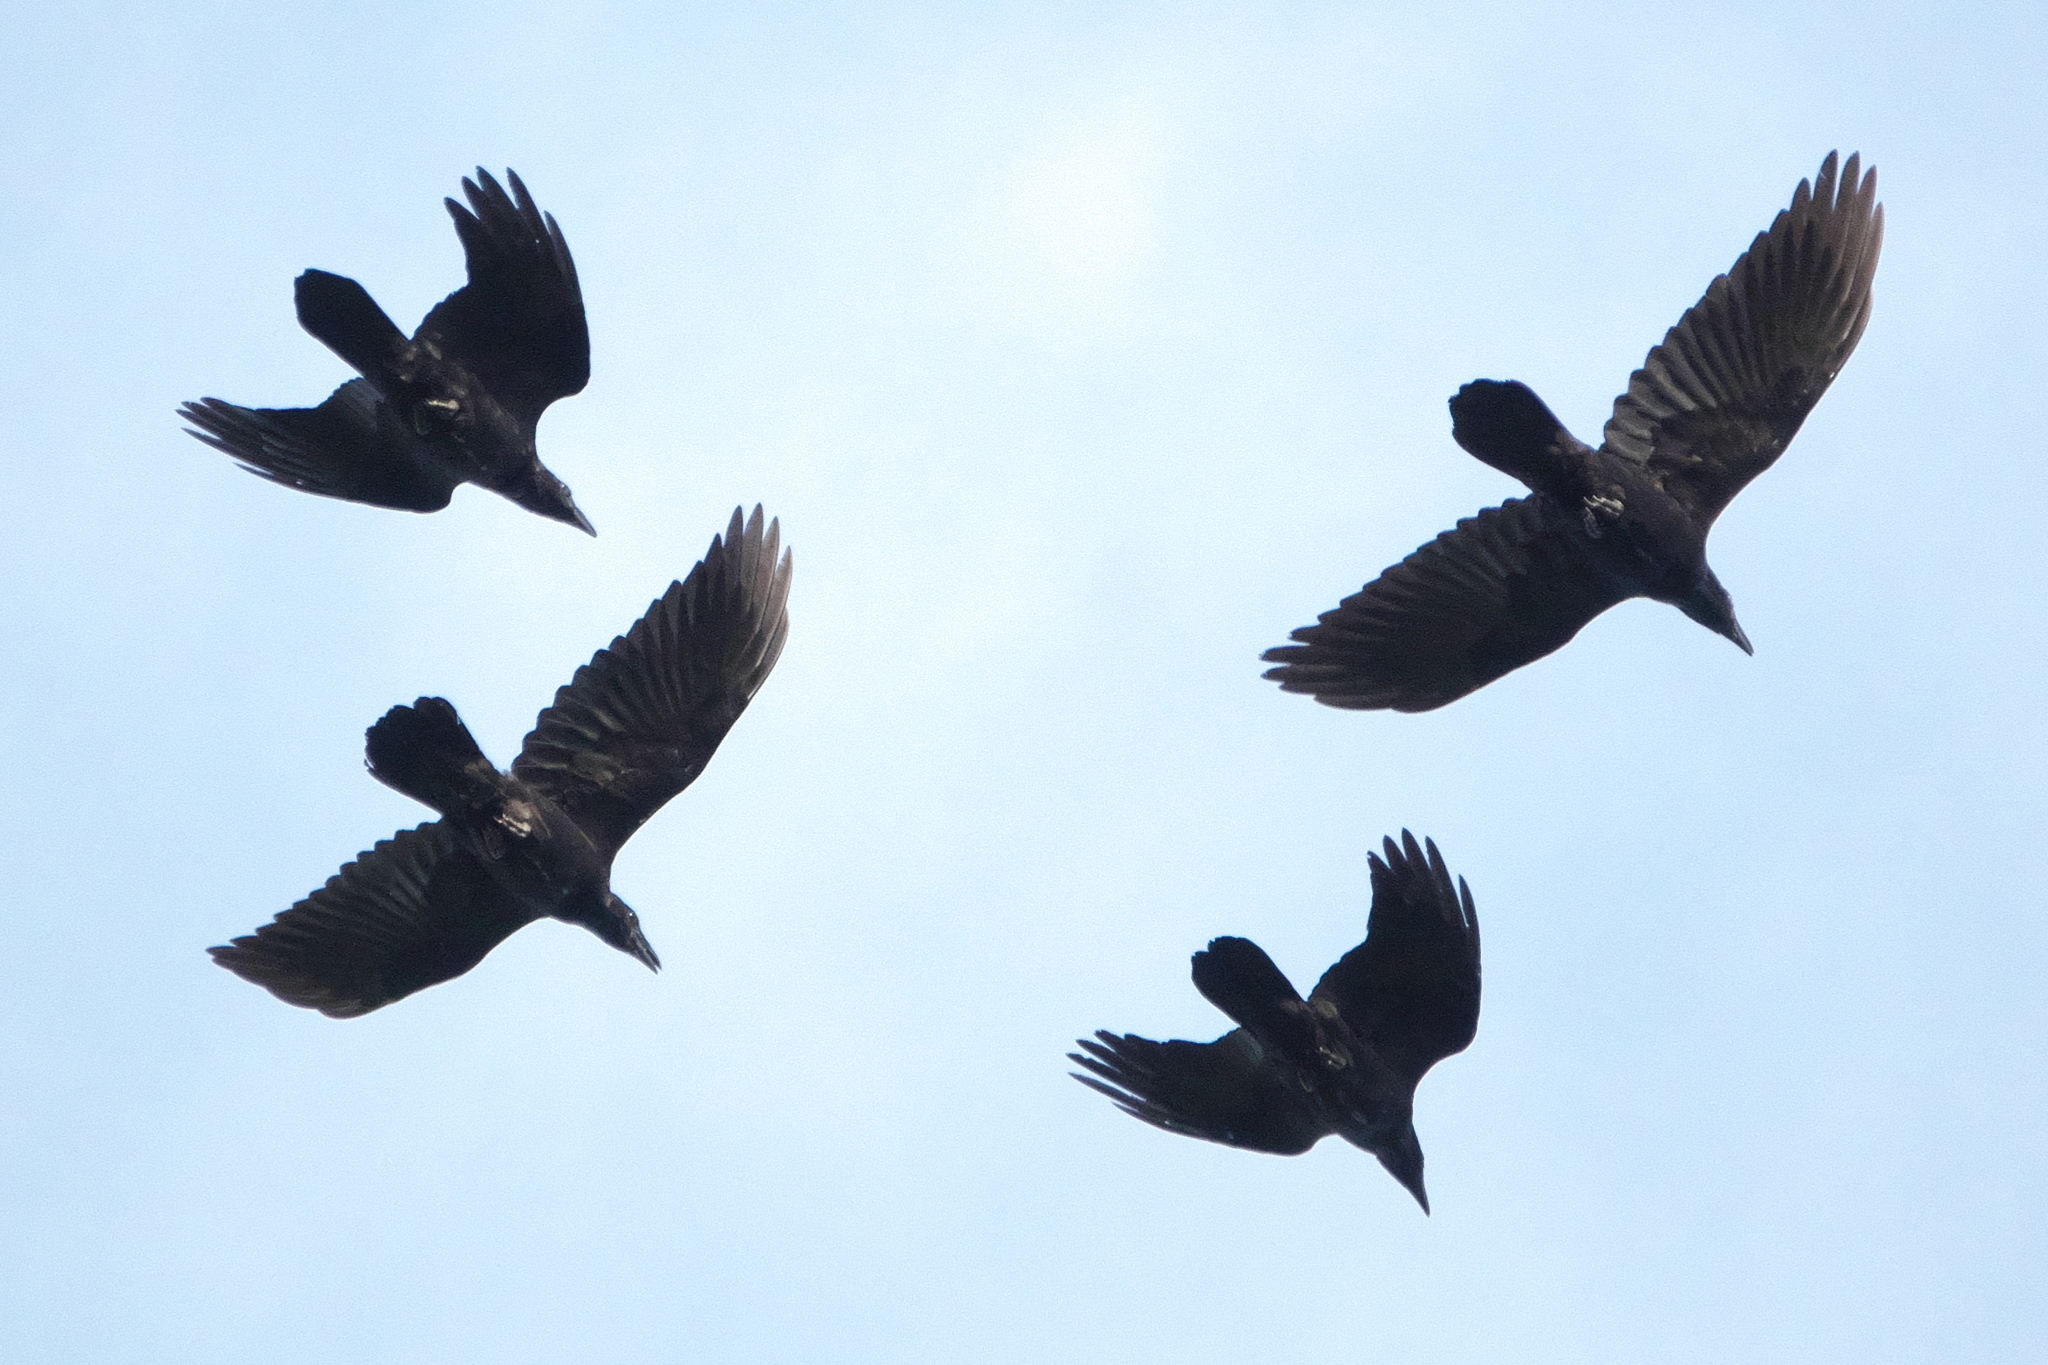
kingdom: Animalia
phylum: Chordata
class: Aves
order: Passeriformes
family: Corvidae
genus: Corvus
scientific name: Corvus corax
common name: Common raven
